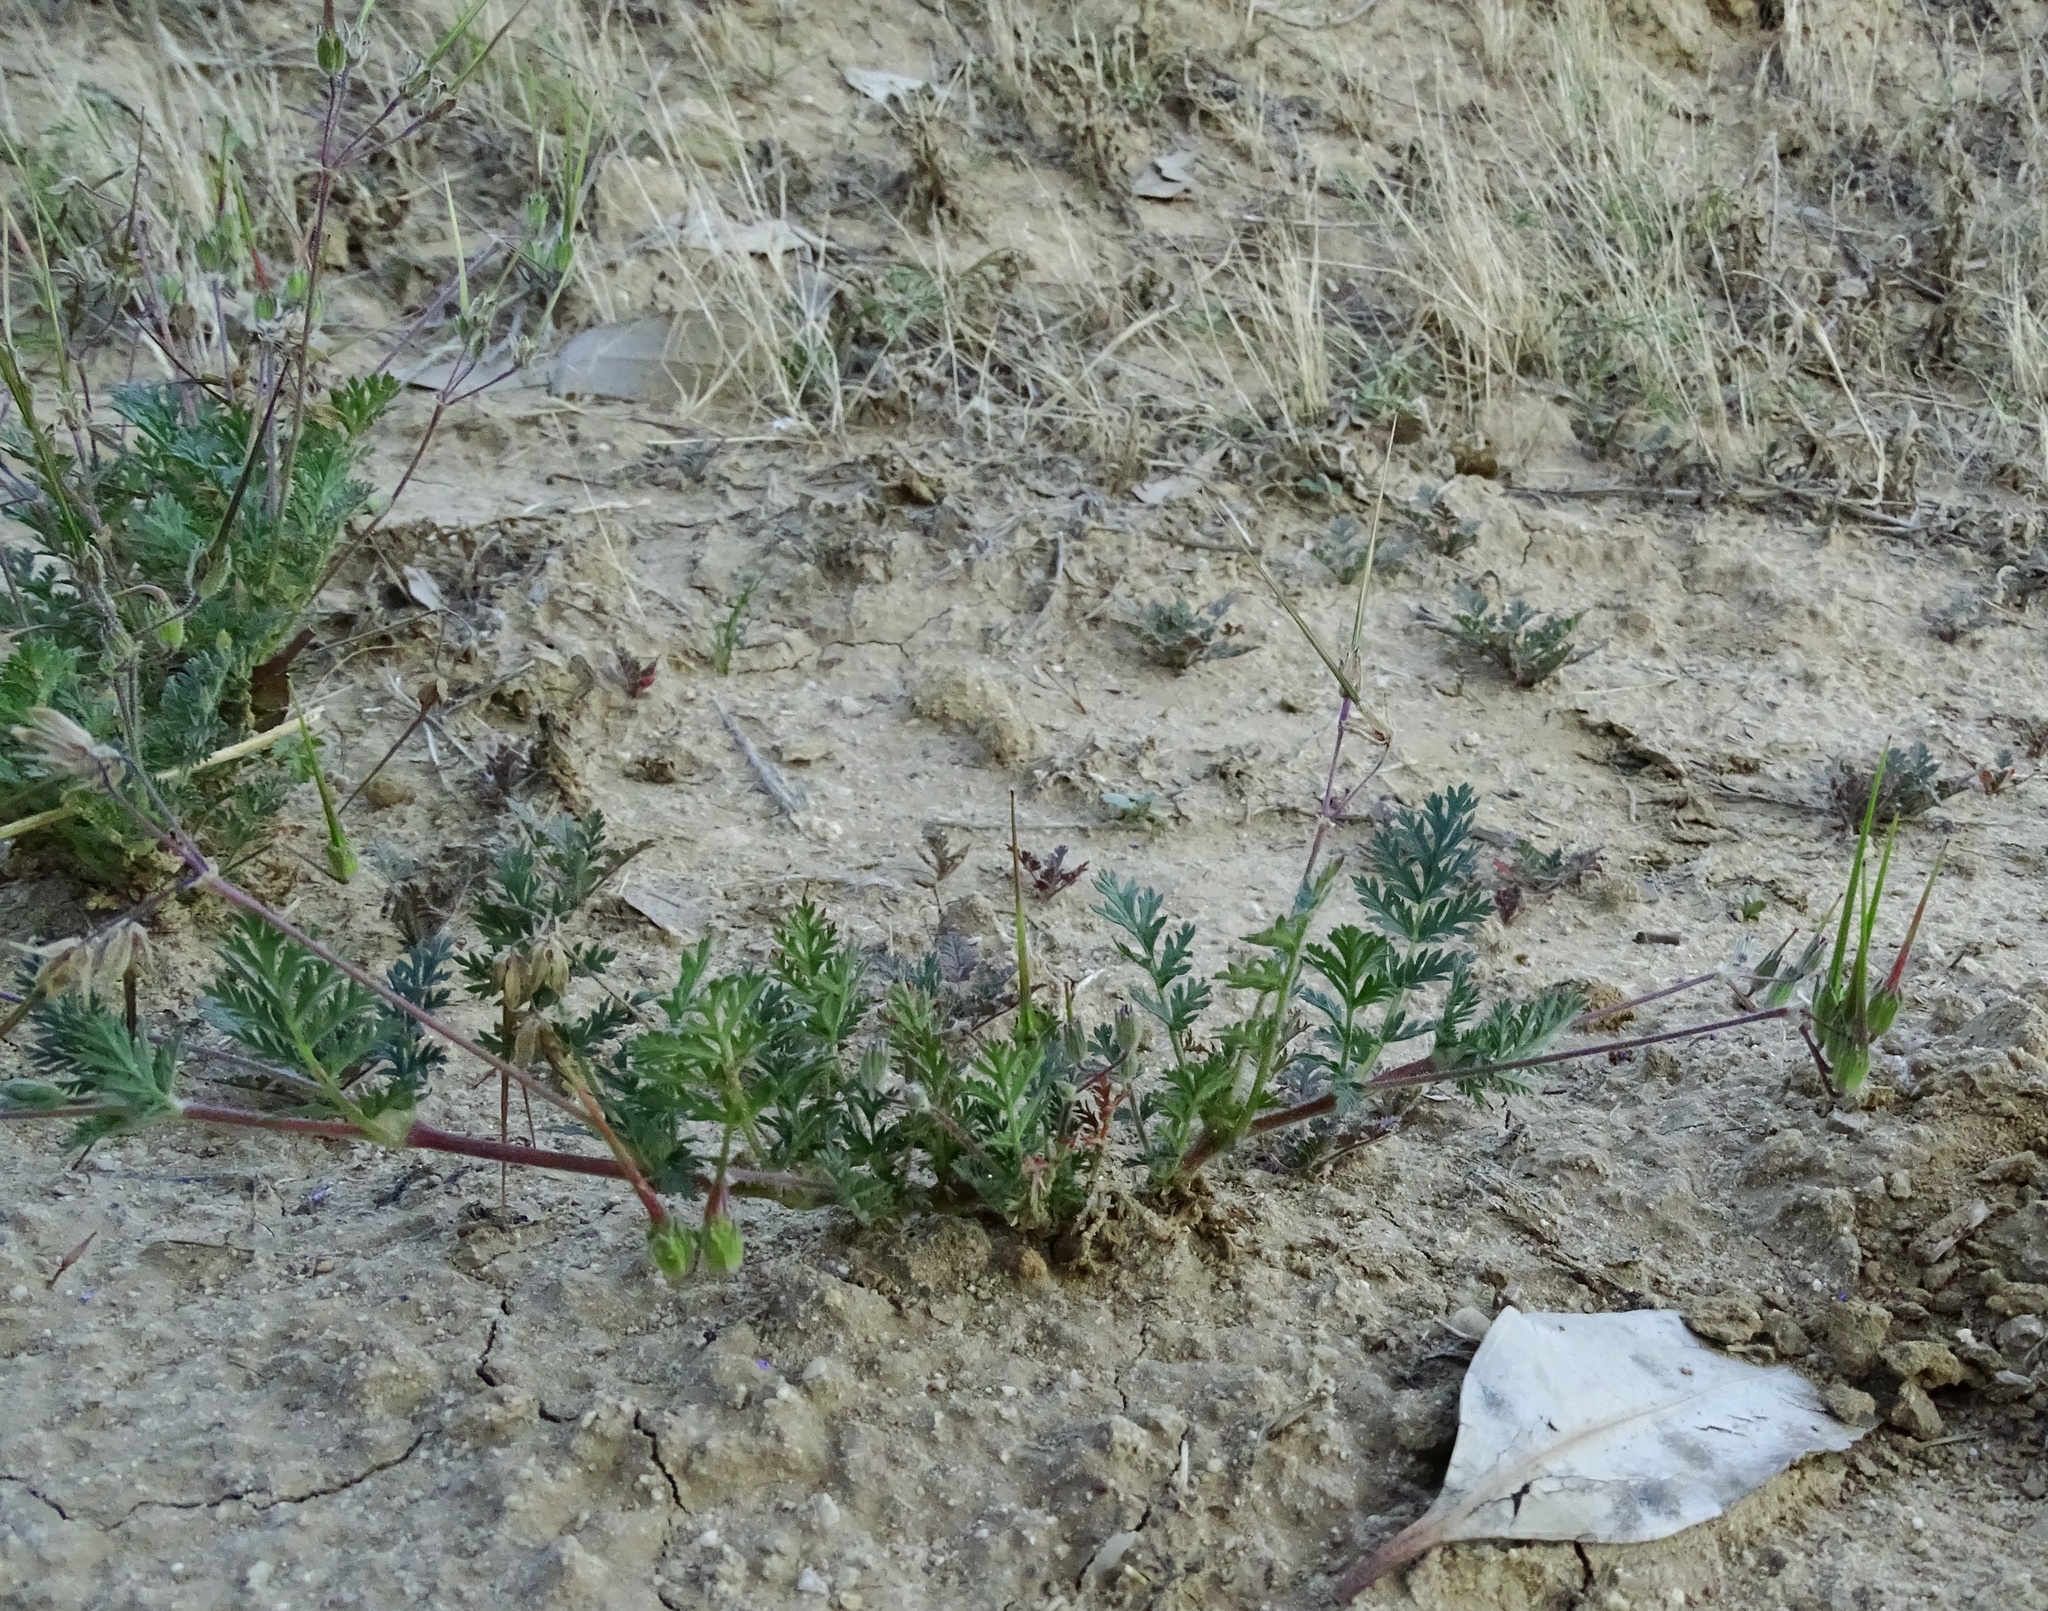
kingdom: Plantae
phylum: Tracheophyta
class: Magnoliopsida
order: Geraniales
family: Geraniaceae
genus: Erodium
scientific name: Erodium cicutarium
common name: Common stork's-bill
